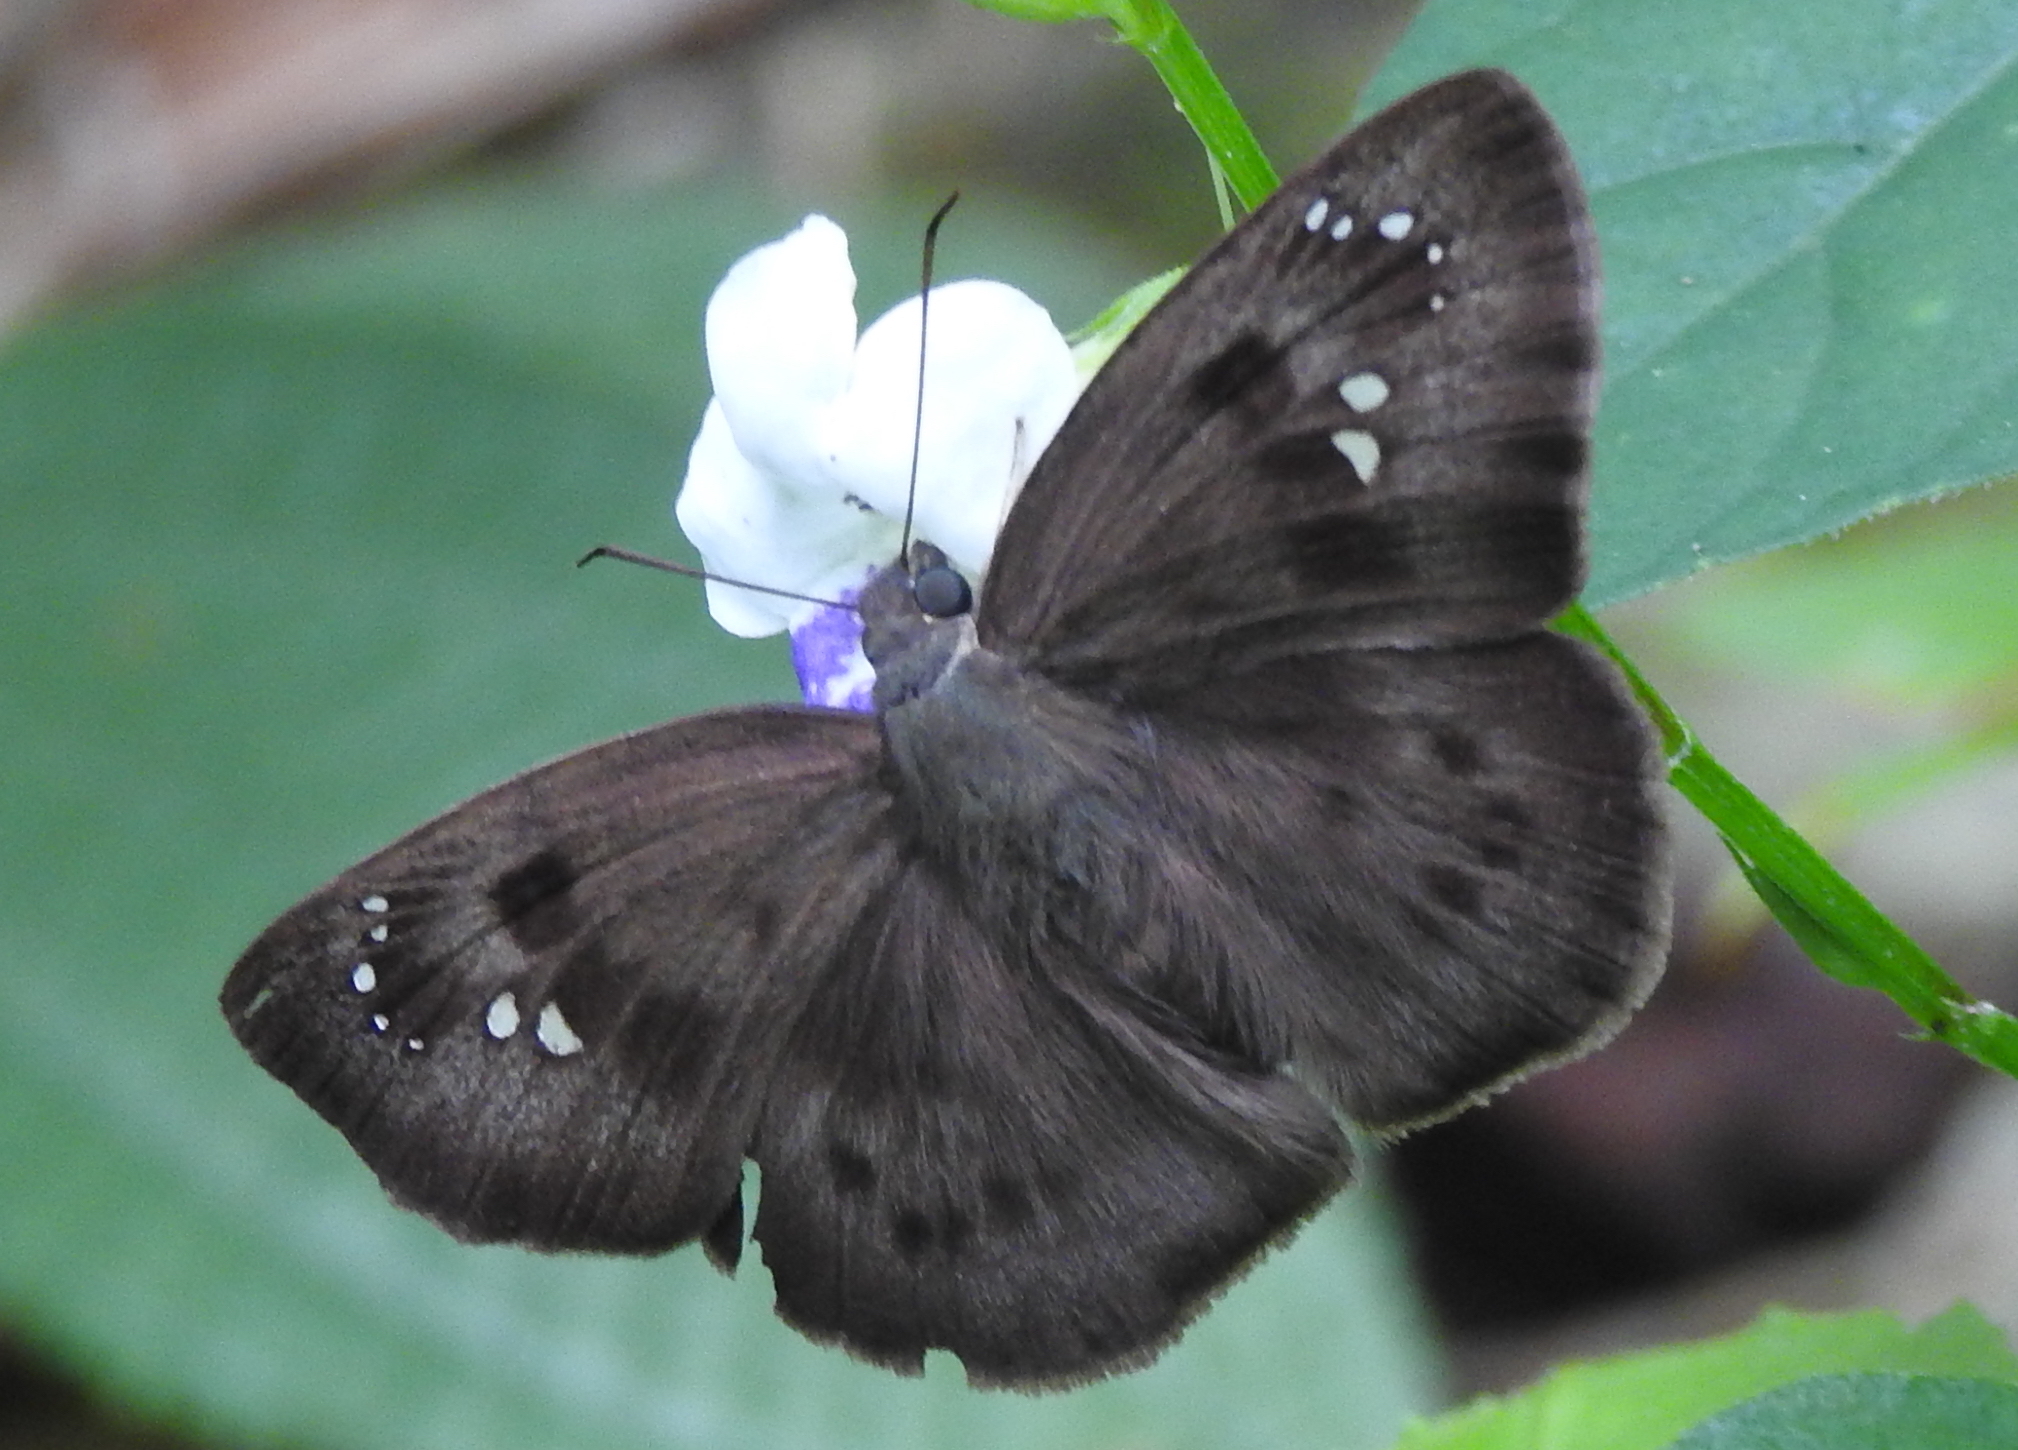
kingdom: Animalia
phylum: Arthropoda
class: Insecta
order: Lepidoptera
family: Hesperiidae
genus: Tagiades
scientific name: Tagiades japetus
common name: Pied flat
